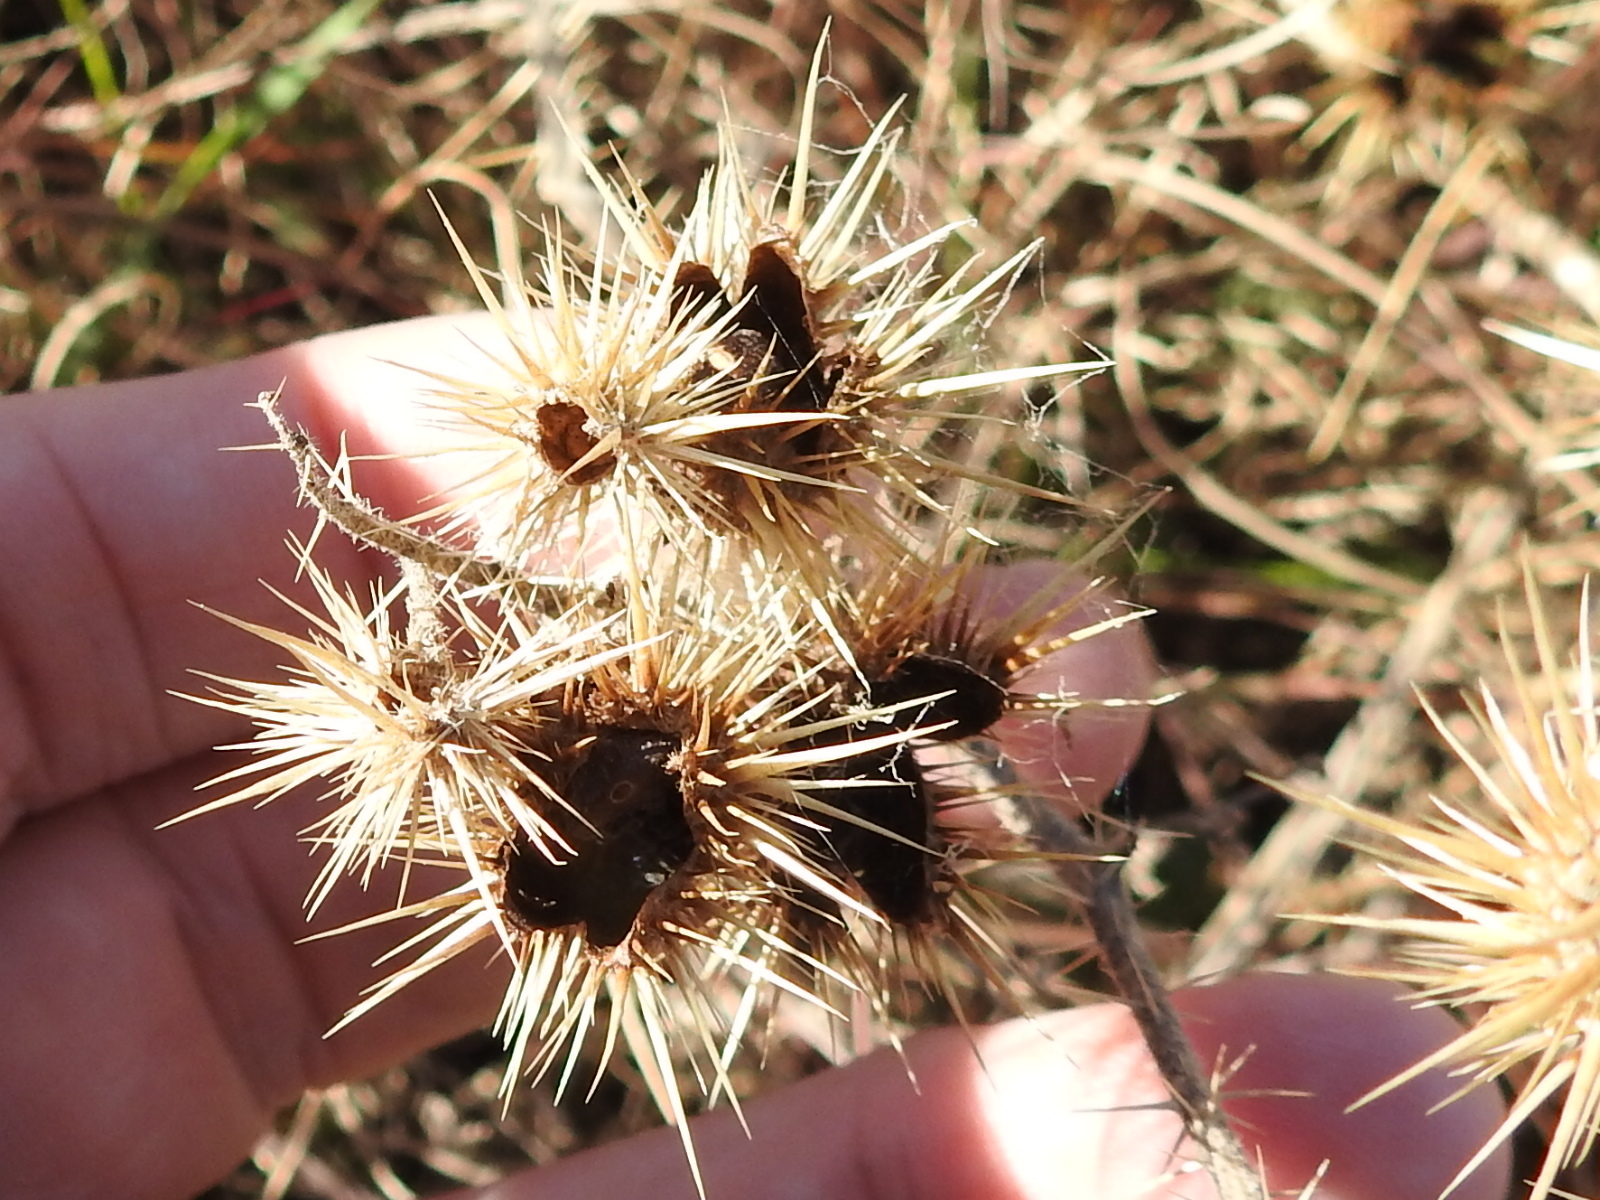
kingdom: Plantae
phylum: Tracheophyta
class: Magnoliopsida
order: Solanales
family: Solanaceae
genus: Solanum
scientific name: Solanum angustifolium
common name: Buffalobur nightshade
